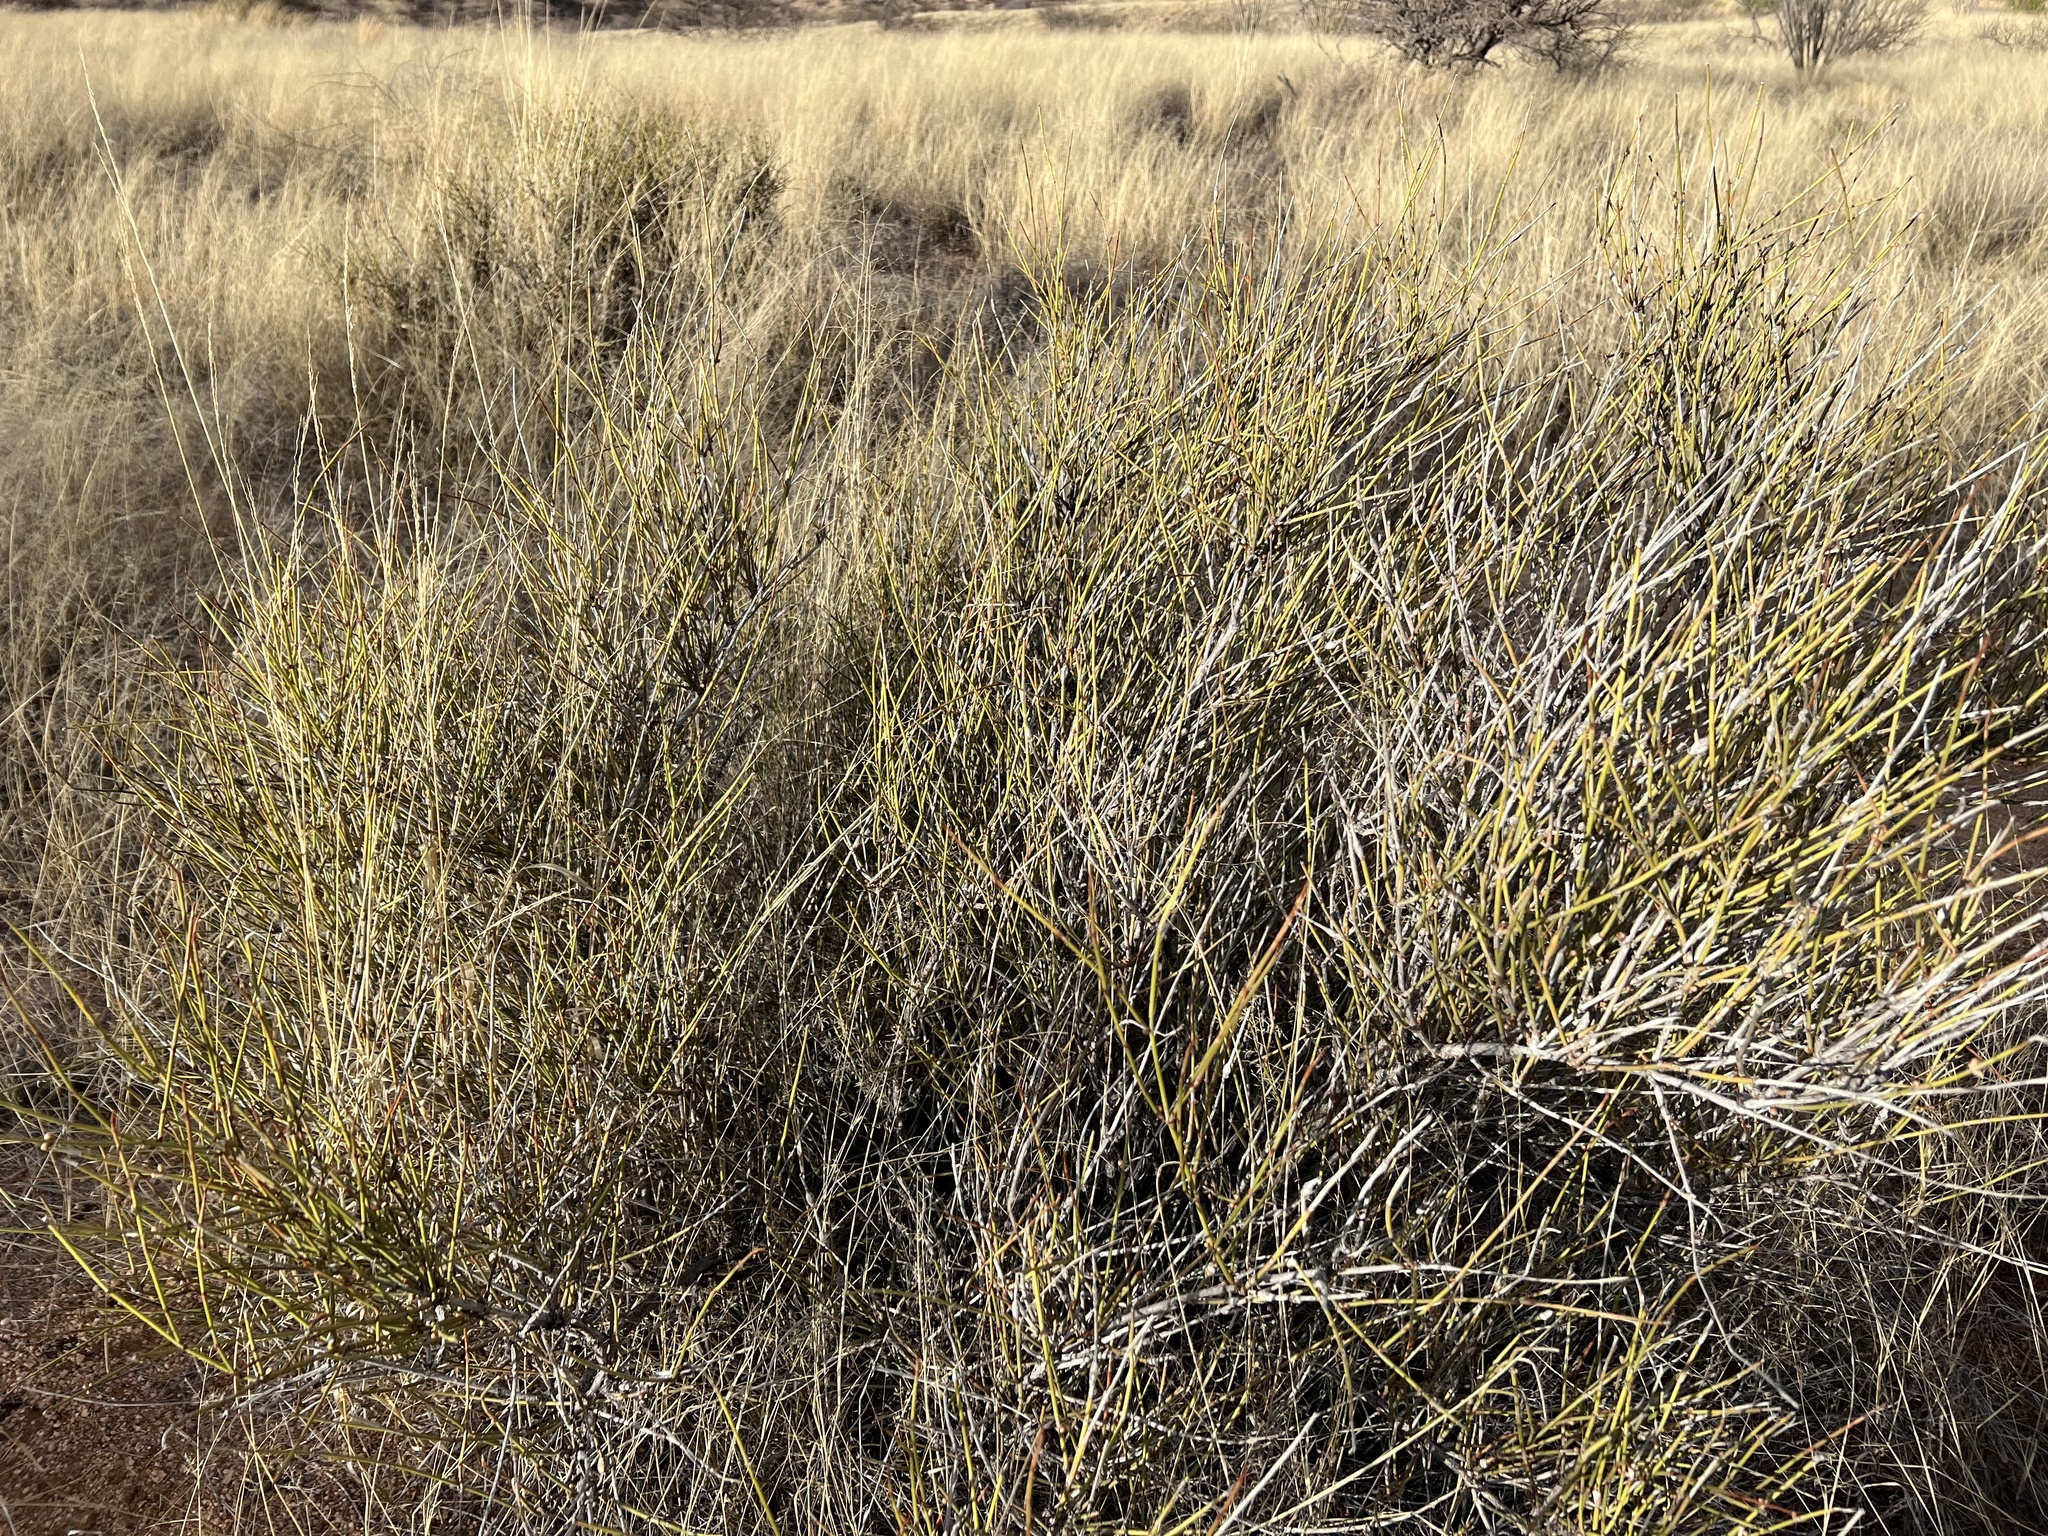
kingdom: Plantae
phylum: Tracheophyta
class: Gnetopsida
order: Ephedrales
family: Ephedraceae
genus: Ephedra
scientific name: Ephedra trifurca
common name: Mexican-tea
